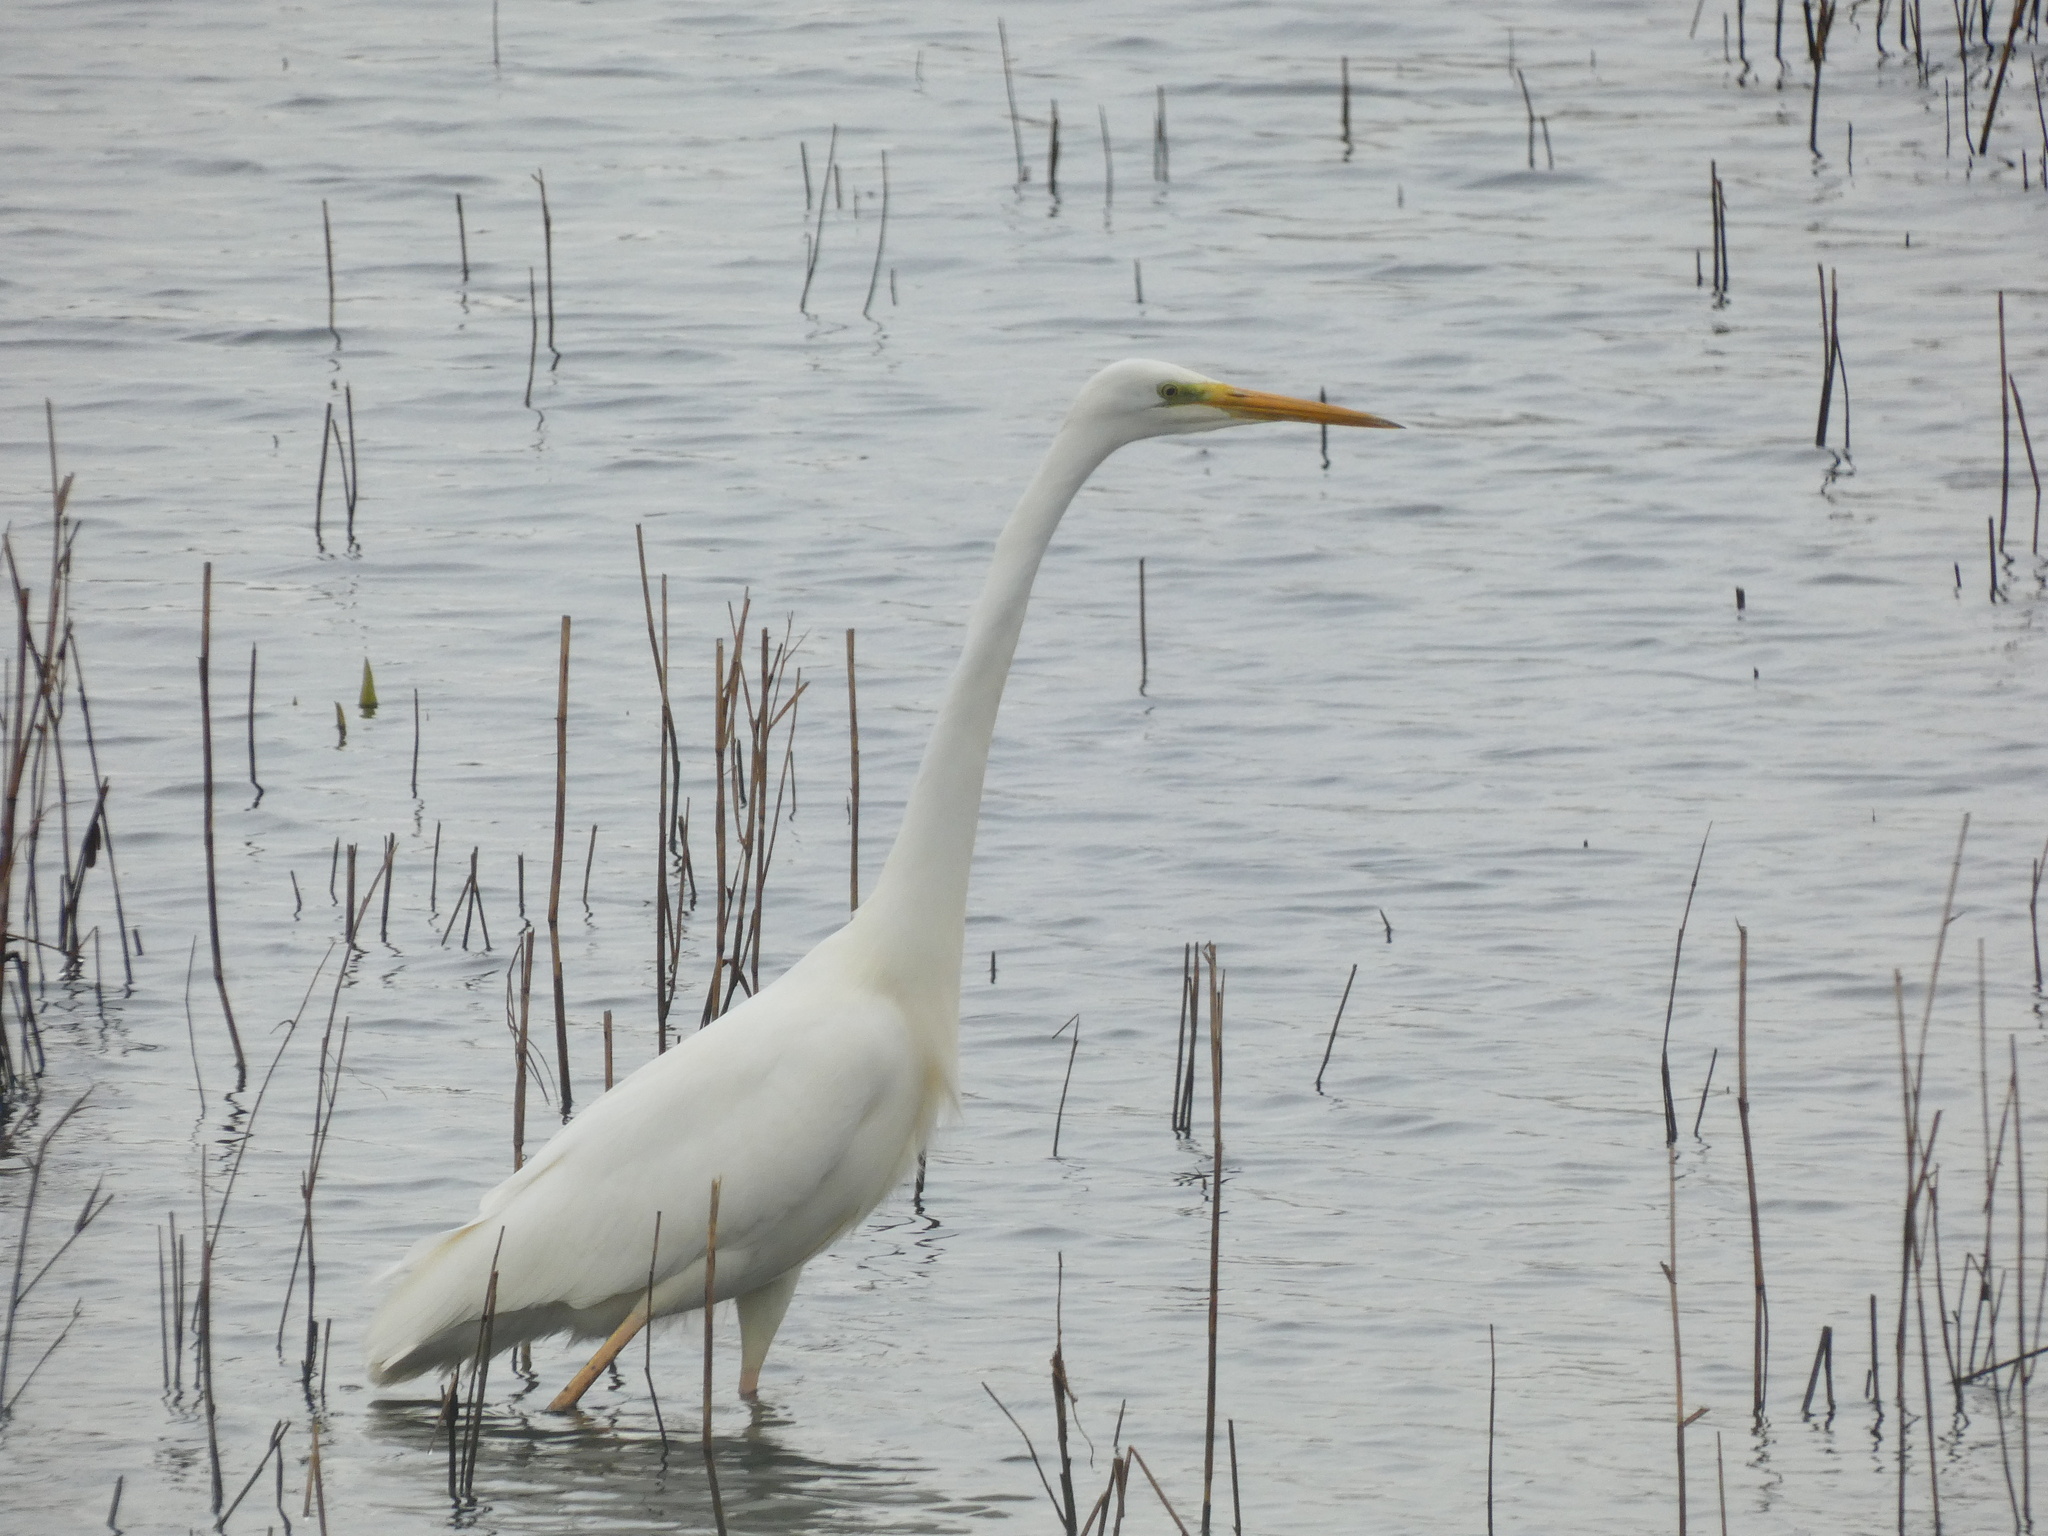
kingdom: Animalia
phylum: Chordata
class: Aves
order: Pelecaniformes
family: Ardeidae
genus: Ardea
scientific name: Ardea alba
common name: Great egret
